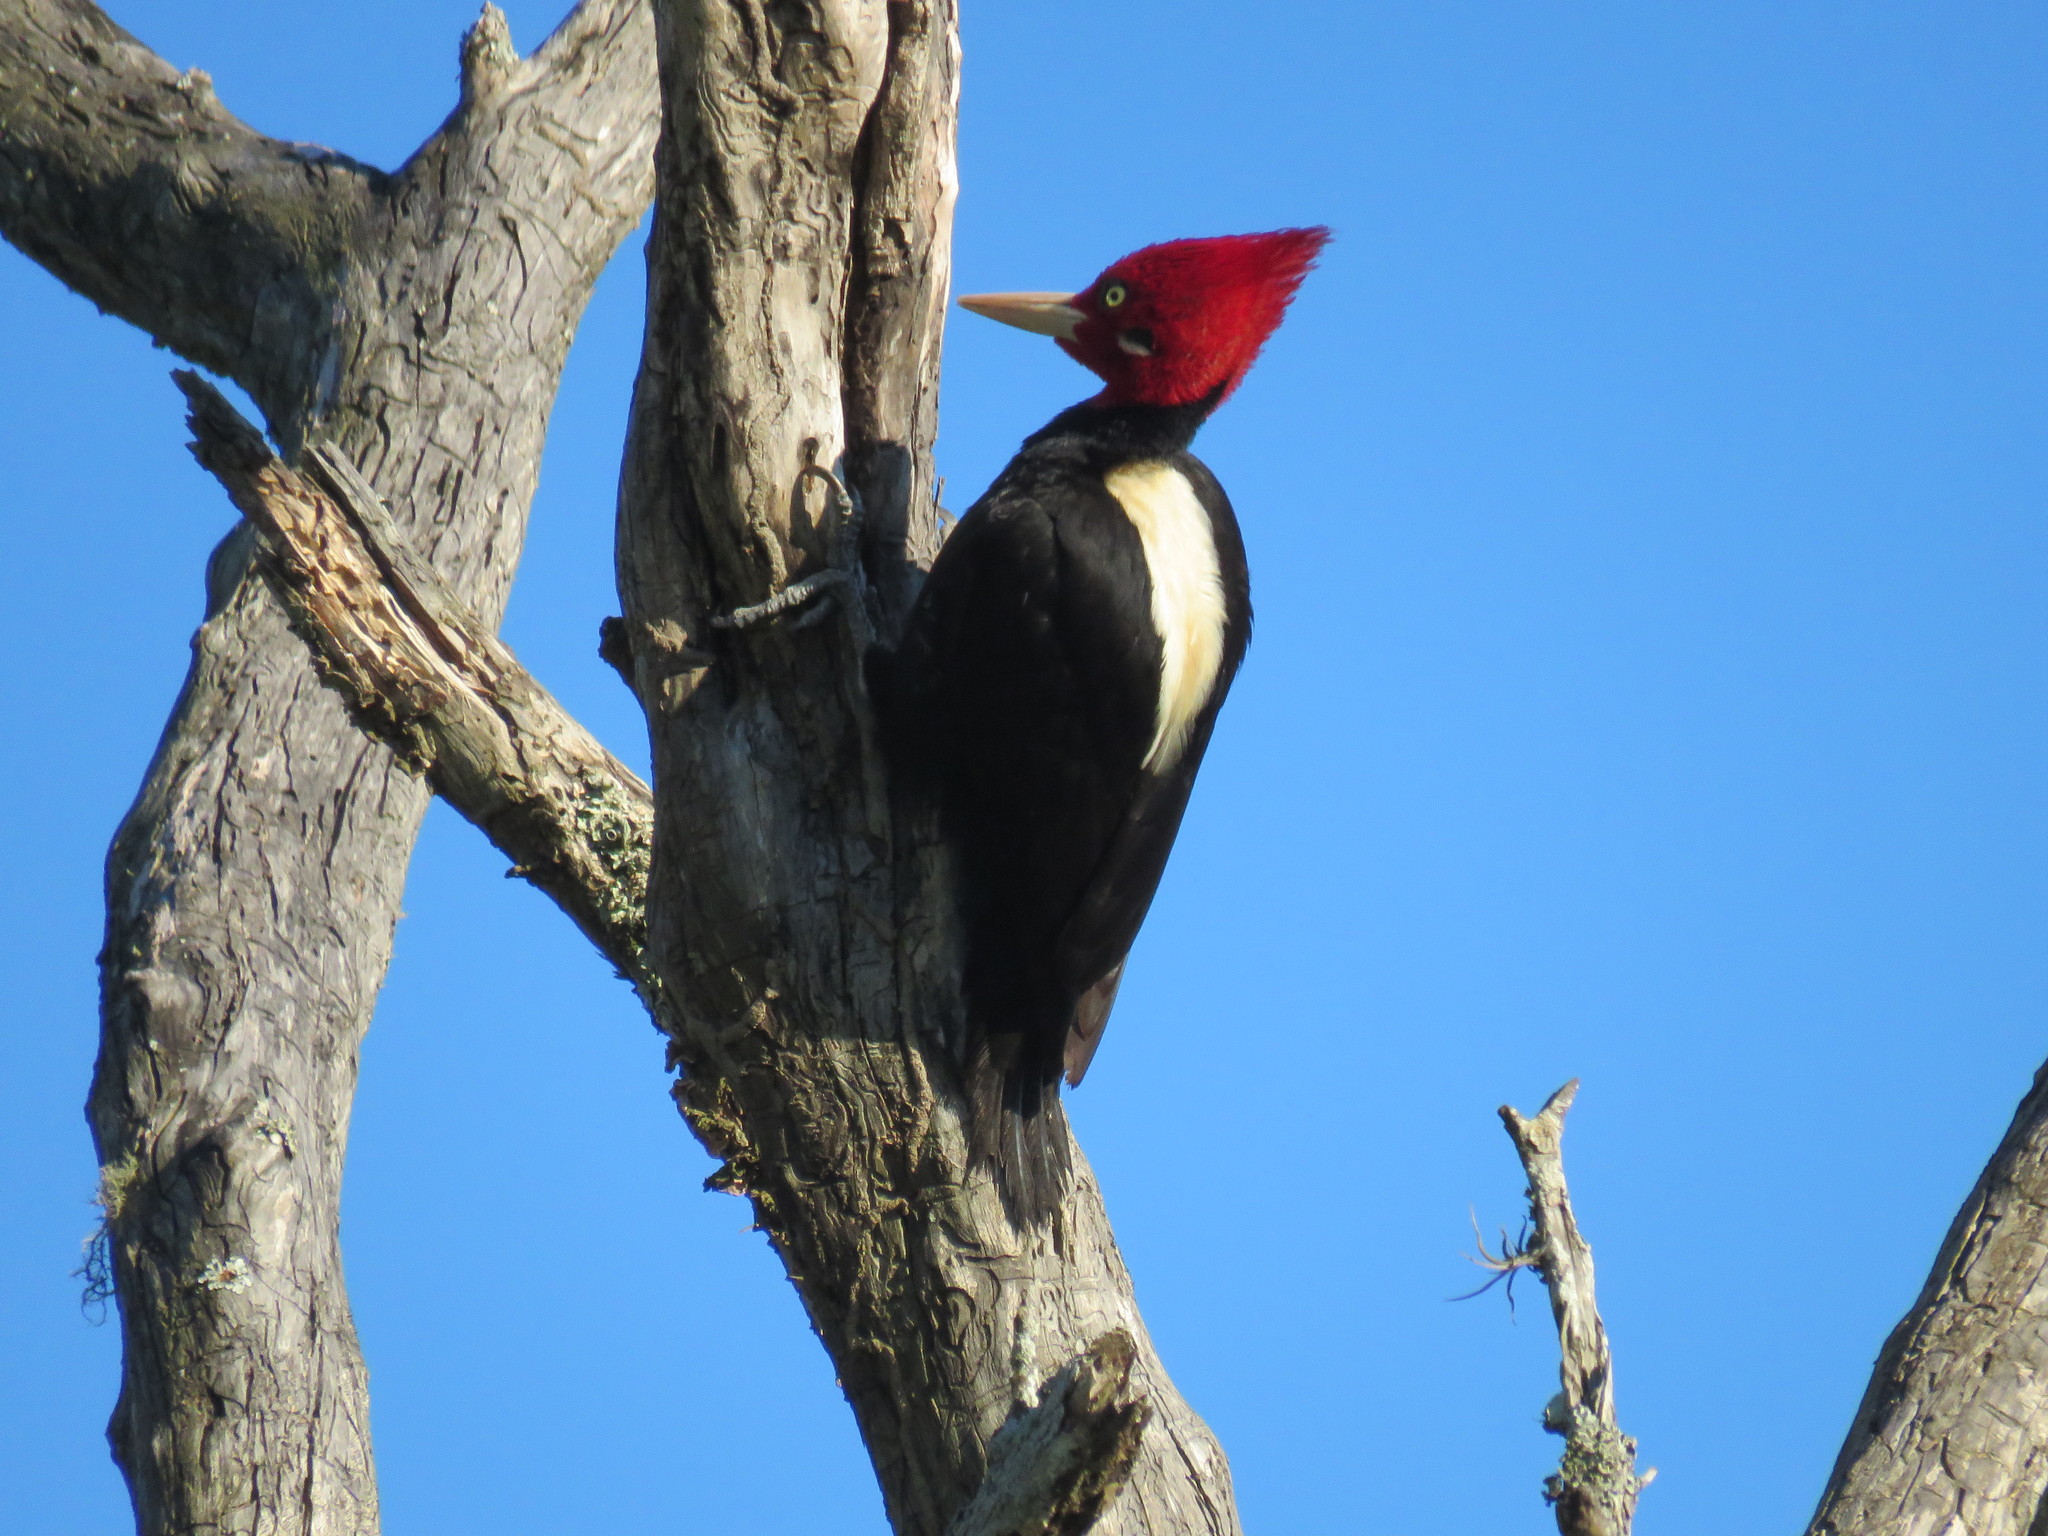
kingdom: Animalia
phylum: Chordata
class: Aves
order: Piciformes
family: Picidae
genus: Campephilus
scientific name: Campephilus leucopogon
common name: Cream-backed woodpecker
